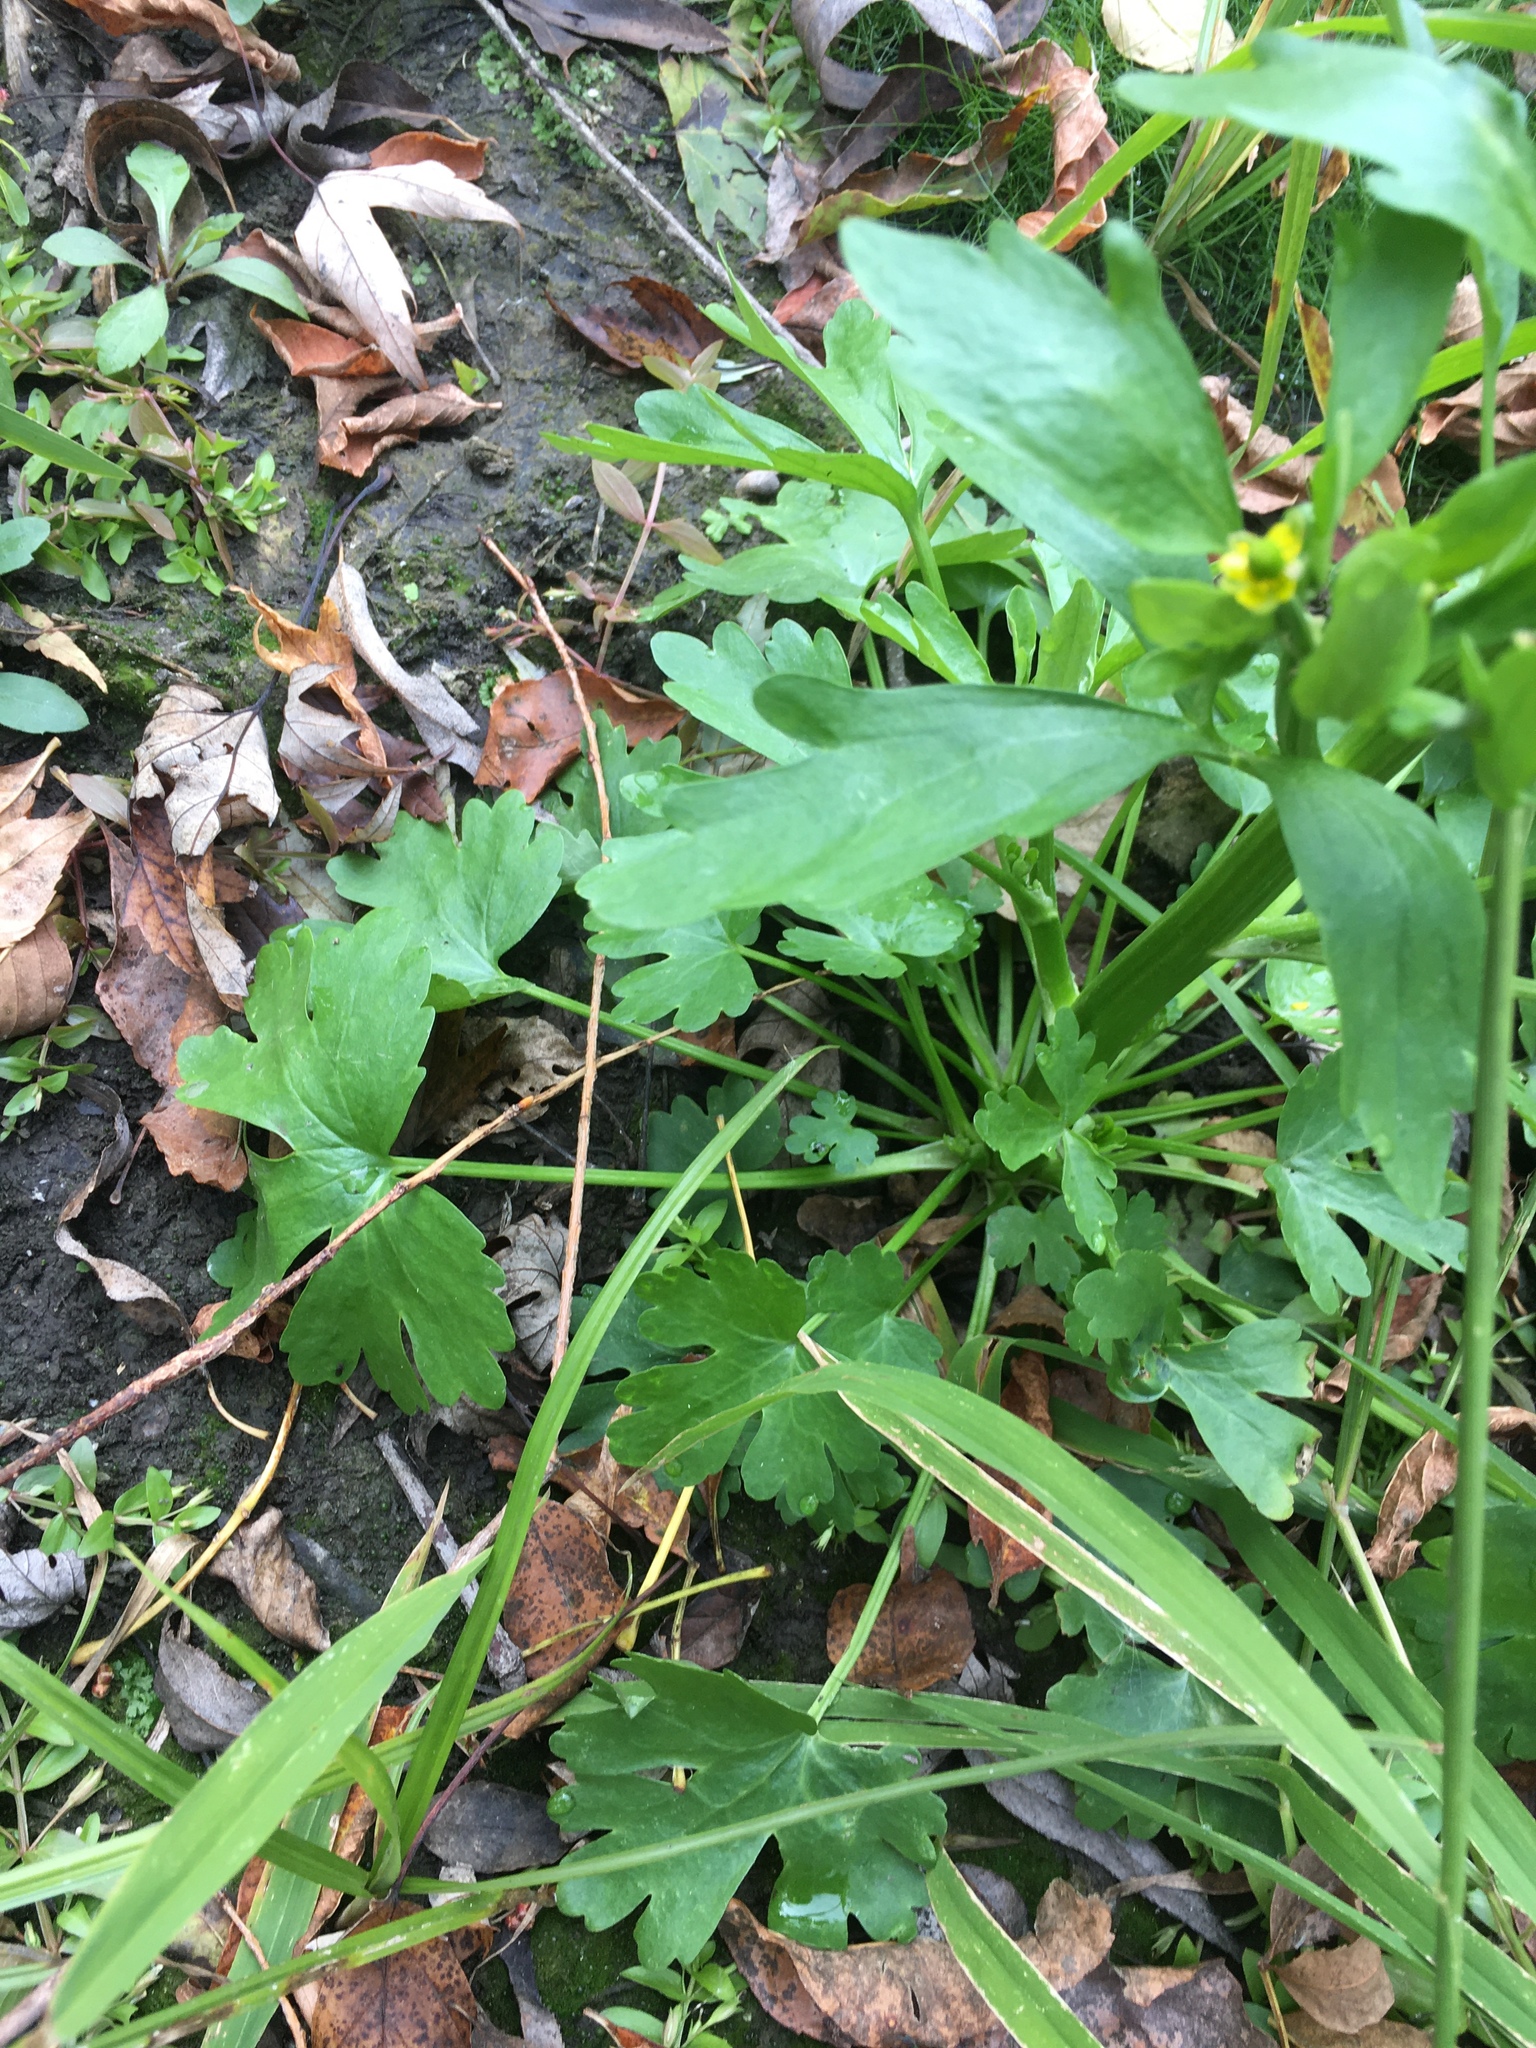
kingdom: Plantae
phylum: Tracheophyta
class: Magnoliopsida
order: Ranunculales
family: Ranunculaceae
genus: Ranunculus
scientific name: Ranunculus sceleratus
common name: Celery-leaved buttercup
